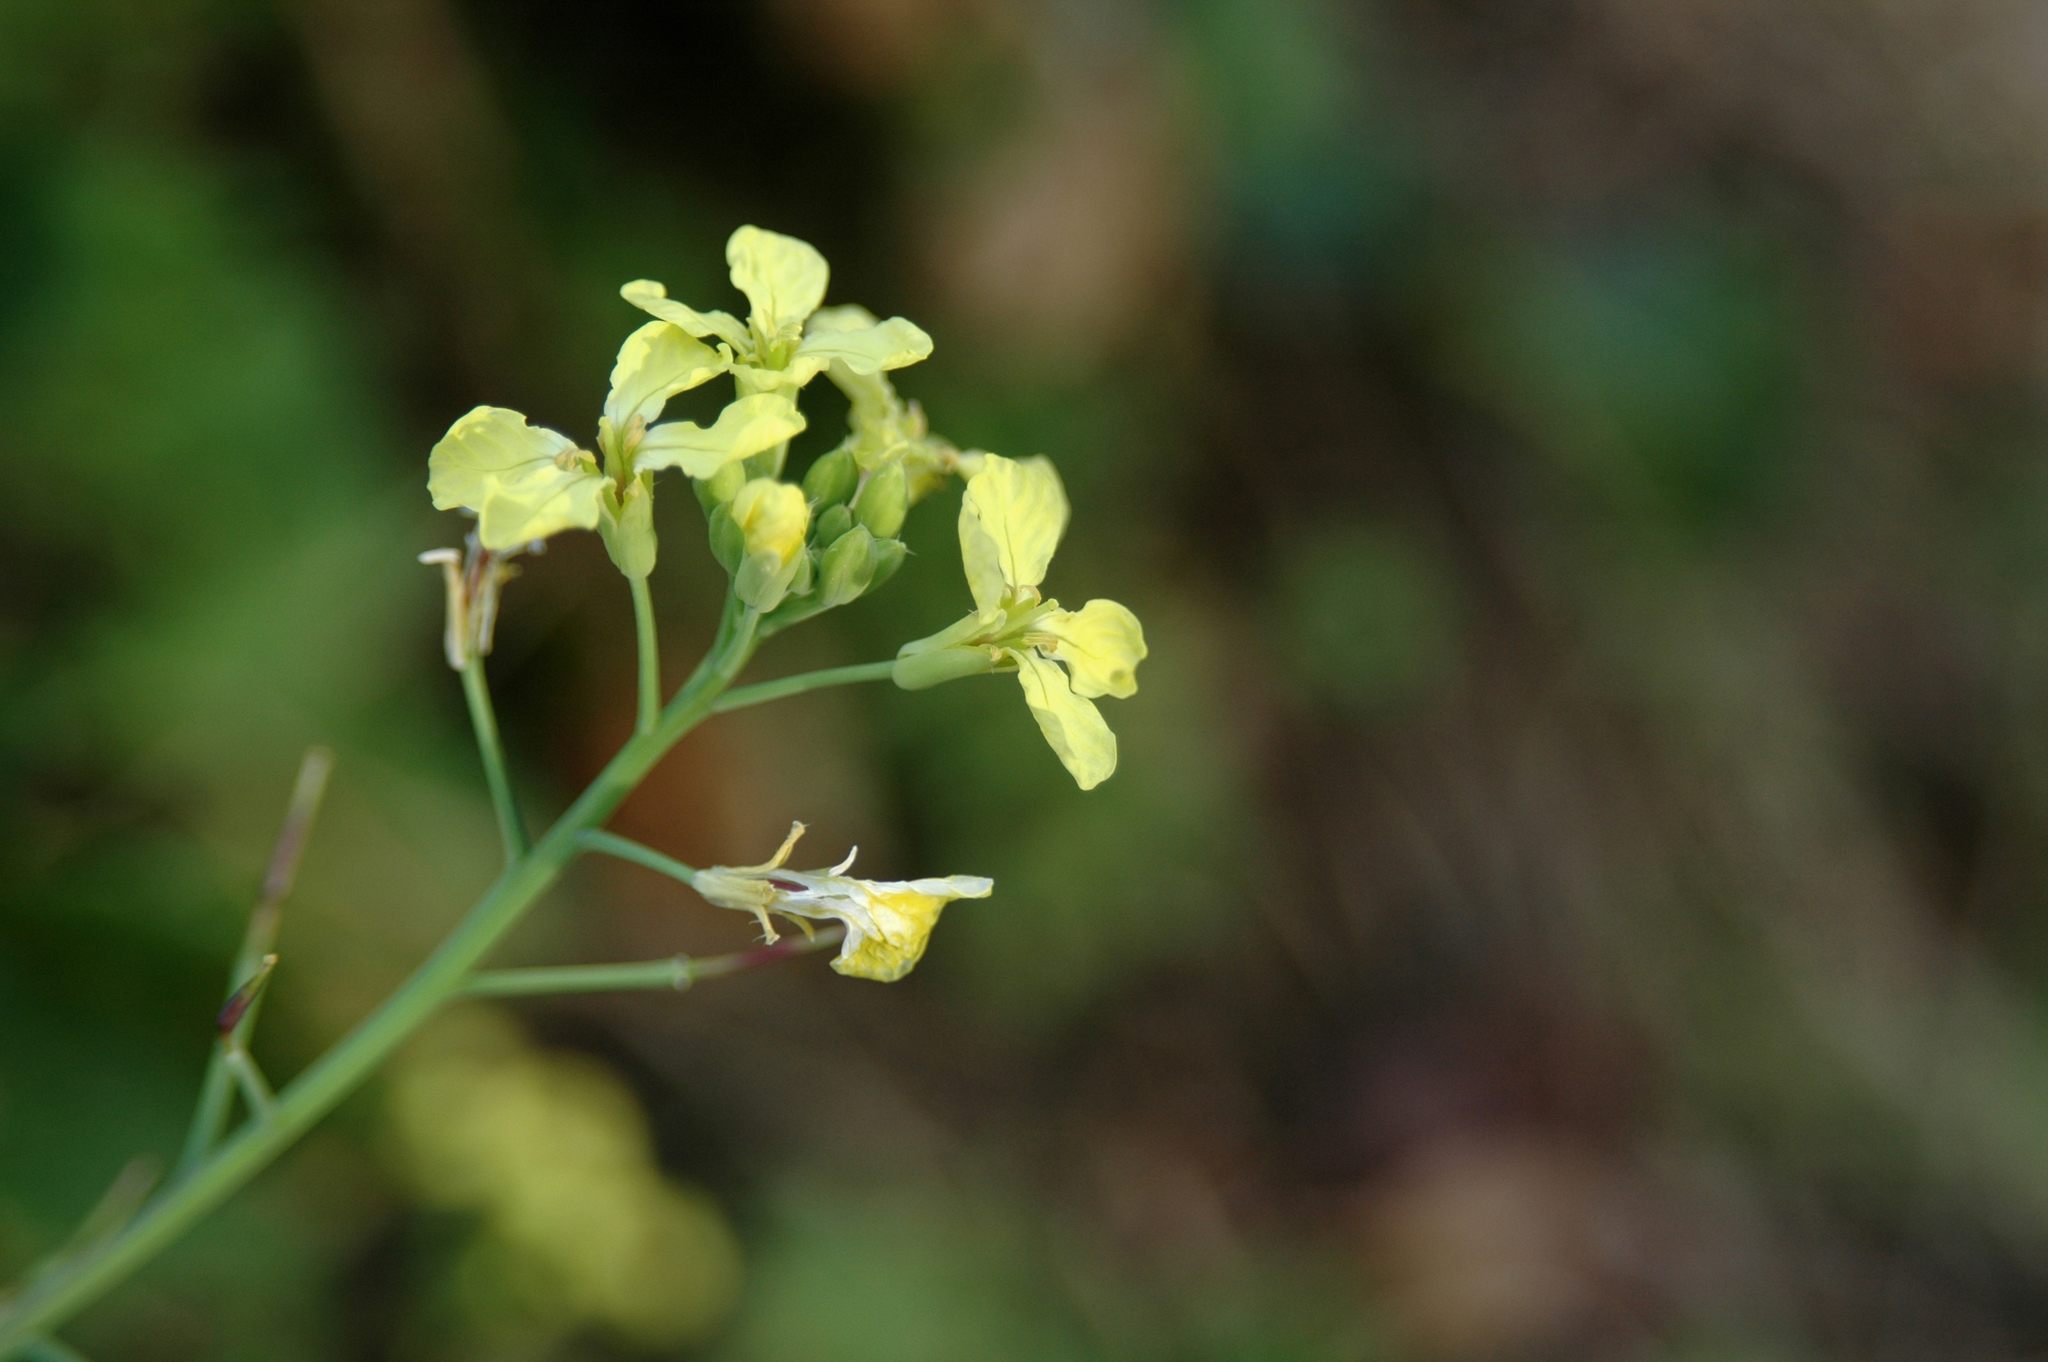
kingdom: Plantae
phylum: Tracheophyta
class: Magnoliopsida
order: Brassicales
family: Brassicaceae
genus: Raphanus
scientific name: Raphanus raphanistrum
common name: Wild radish
